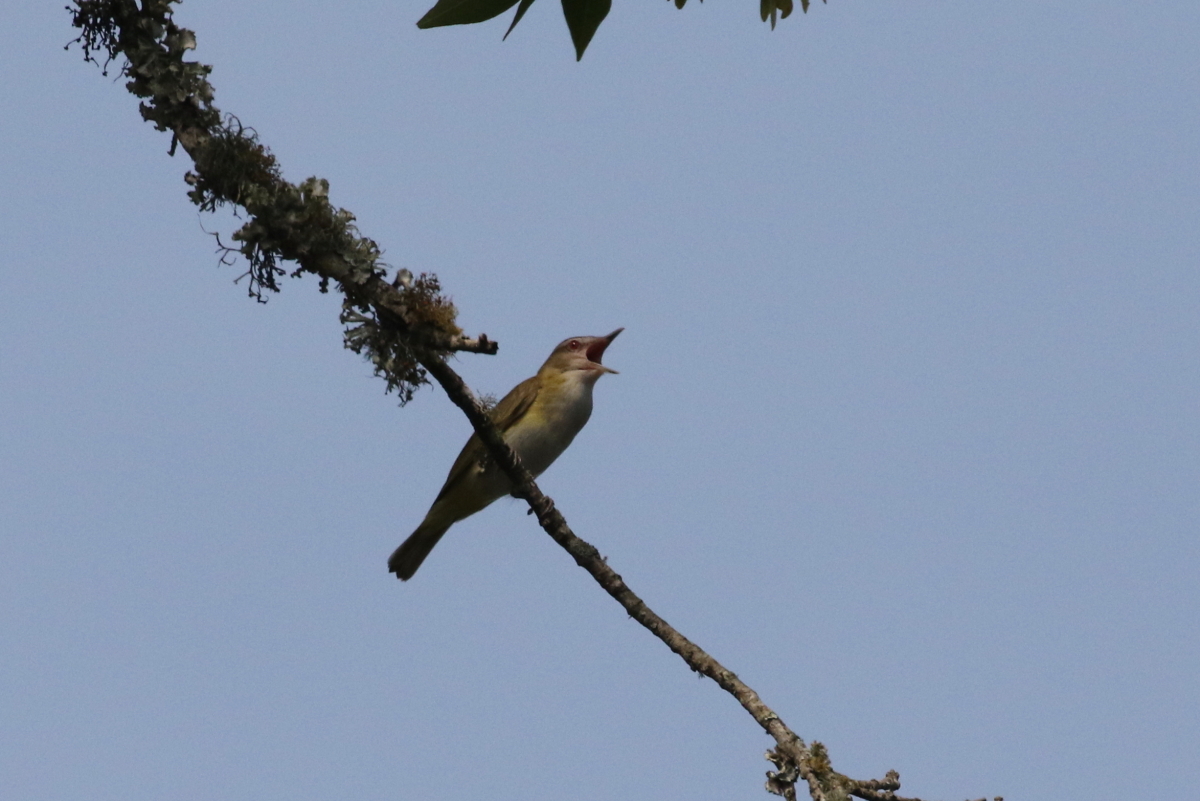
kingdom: Animalia
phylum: Chordata
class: Aves
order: Passeriformes
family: Vireonidae
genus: Vireo
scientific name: Vireo flavoviridis
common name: Yellow-green vireo
